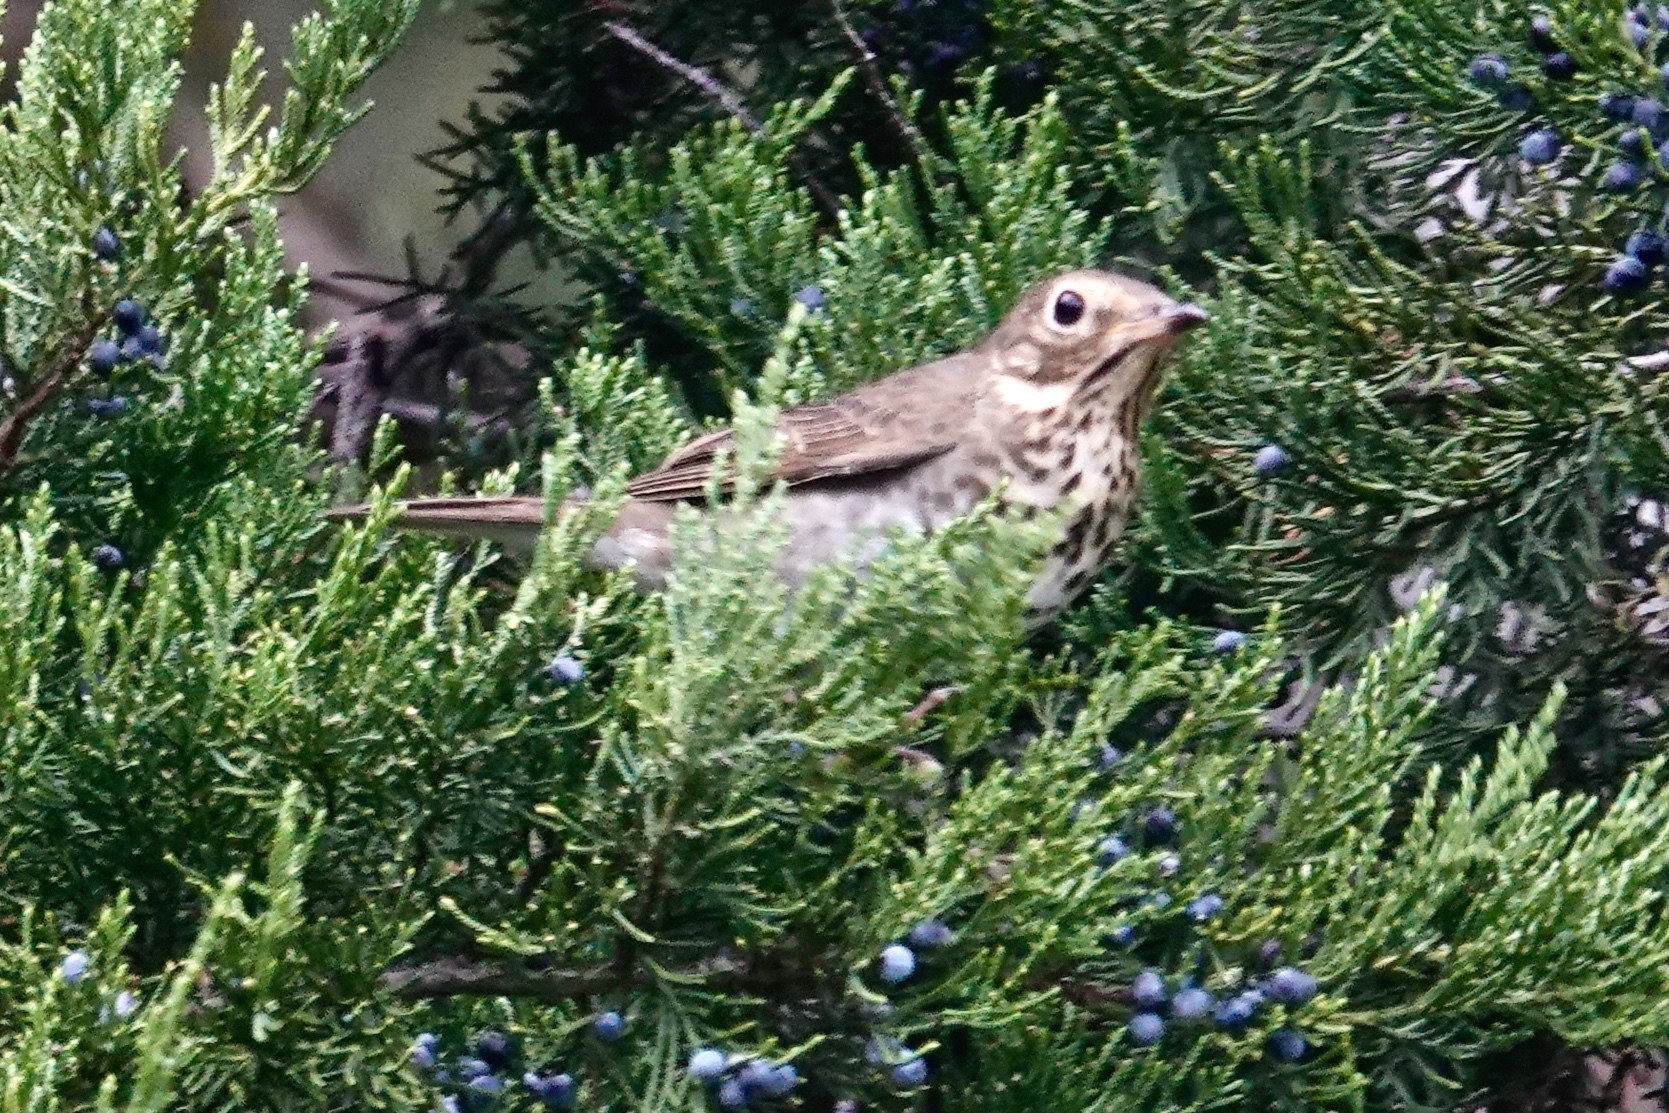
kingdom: Animalia
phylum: Chordata
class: Aves
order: Passeriformes
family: Turdidae
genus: Catharus
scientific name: Catharus ustulatus
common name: Swainson's thrush
